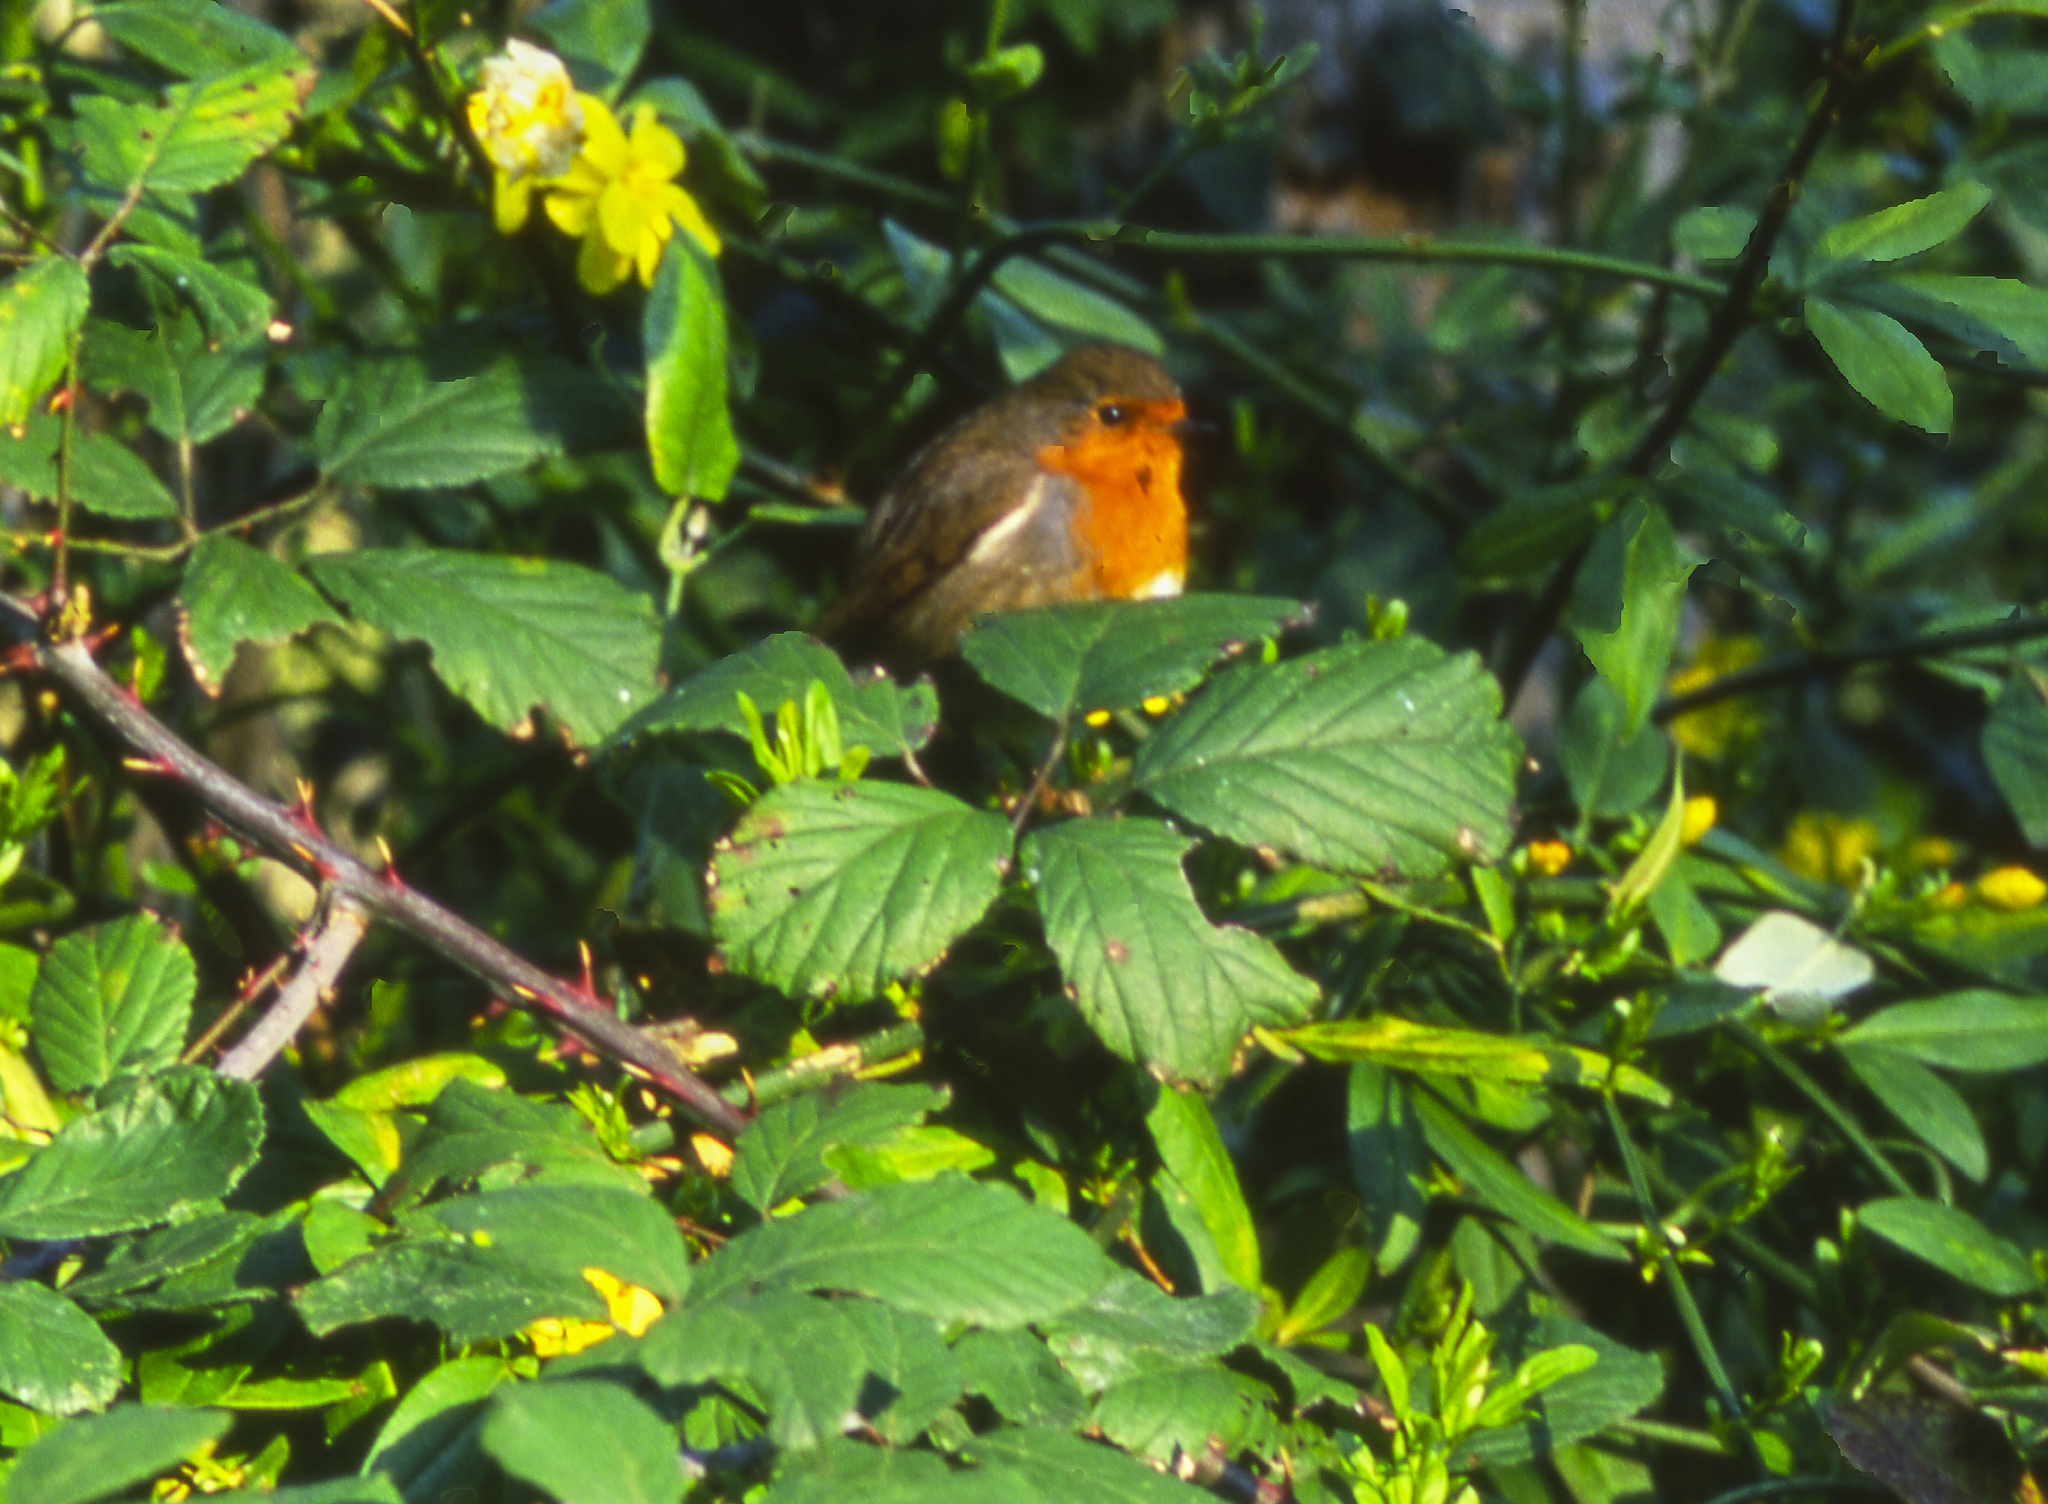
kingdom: Animalia
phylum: Chordata
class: Aves
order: Passeriformes
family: Muscicapidae
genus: Erithacus
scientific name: Erithacus rubecula
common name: European robin
